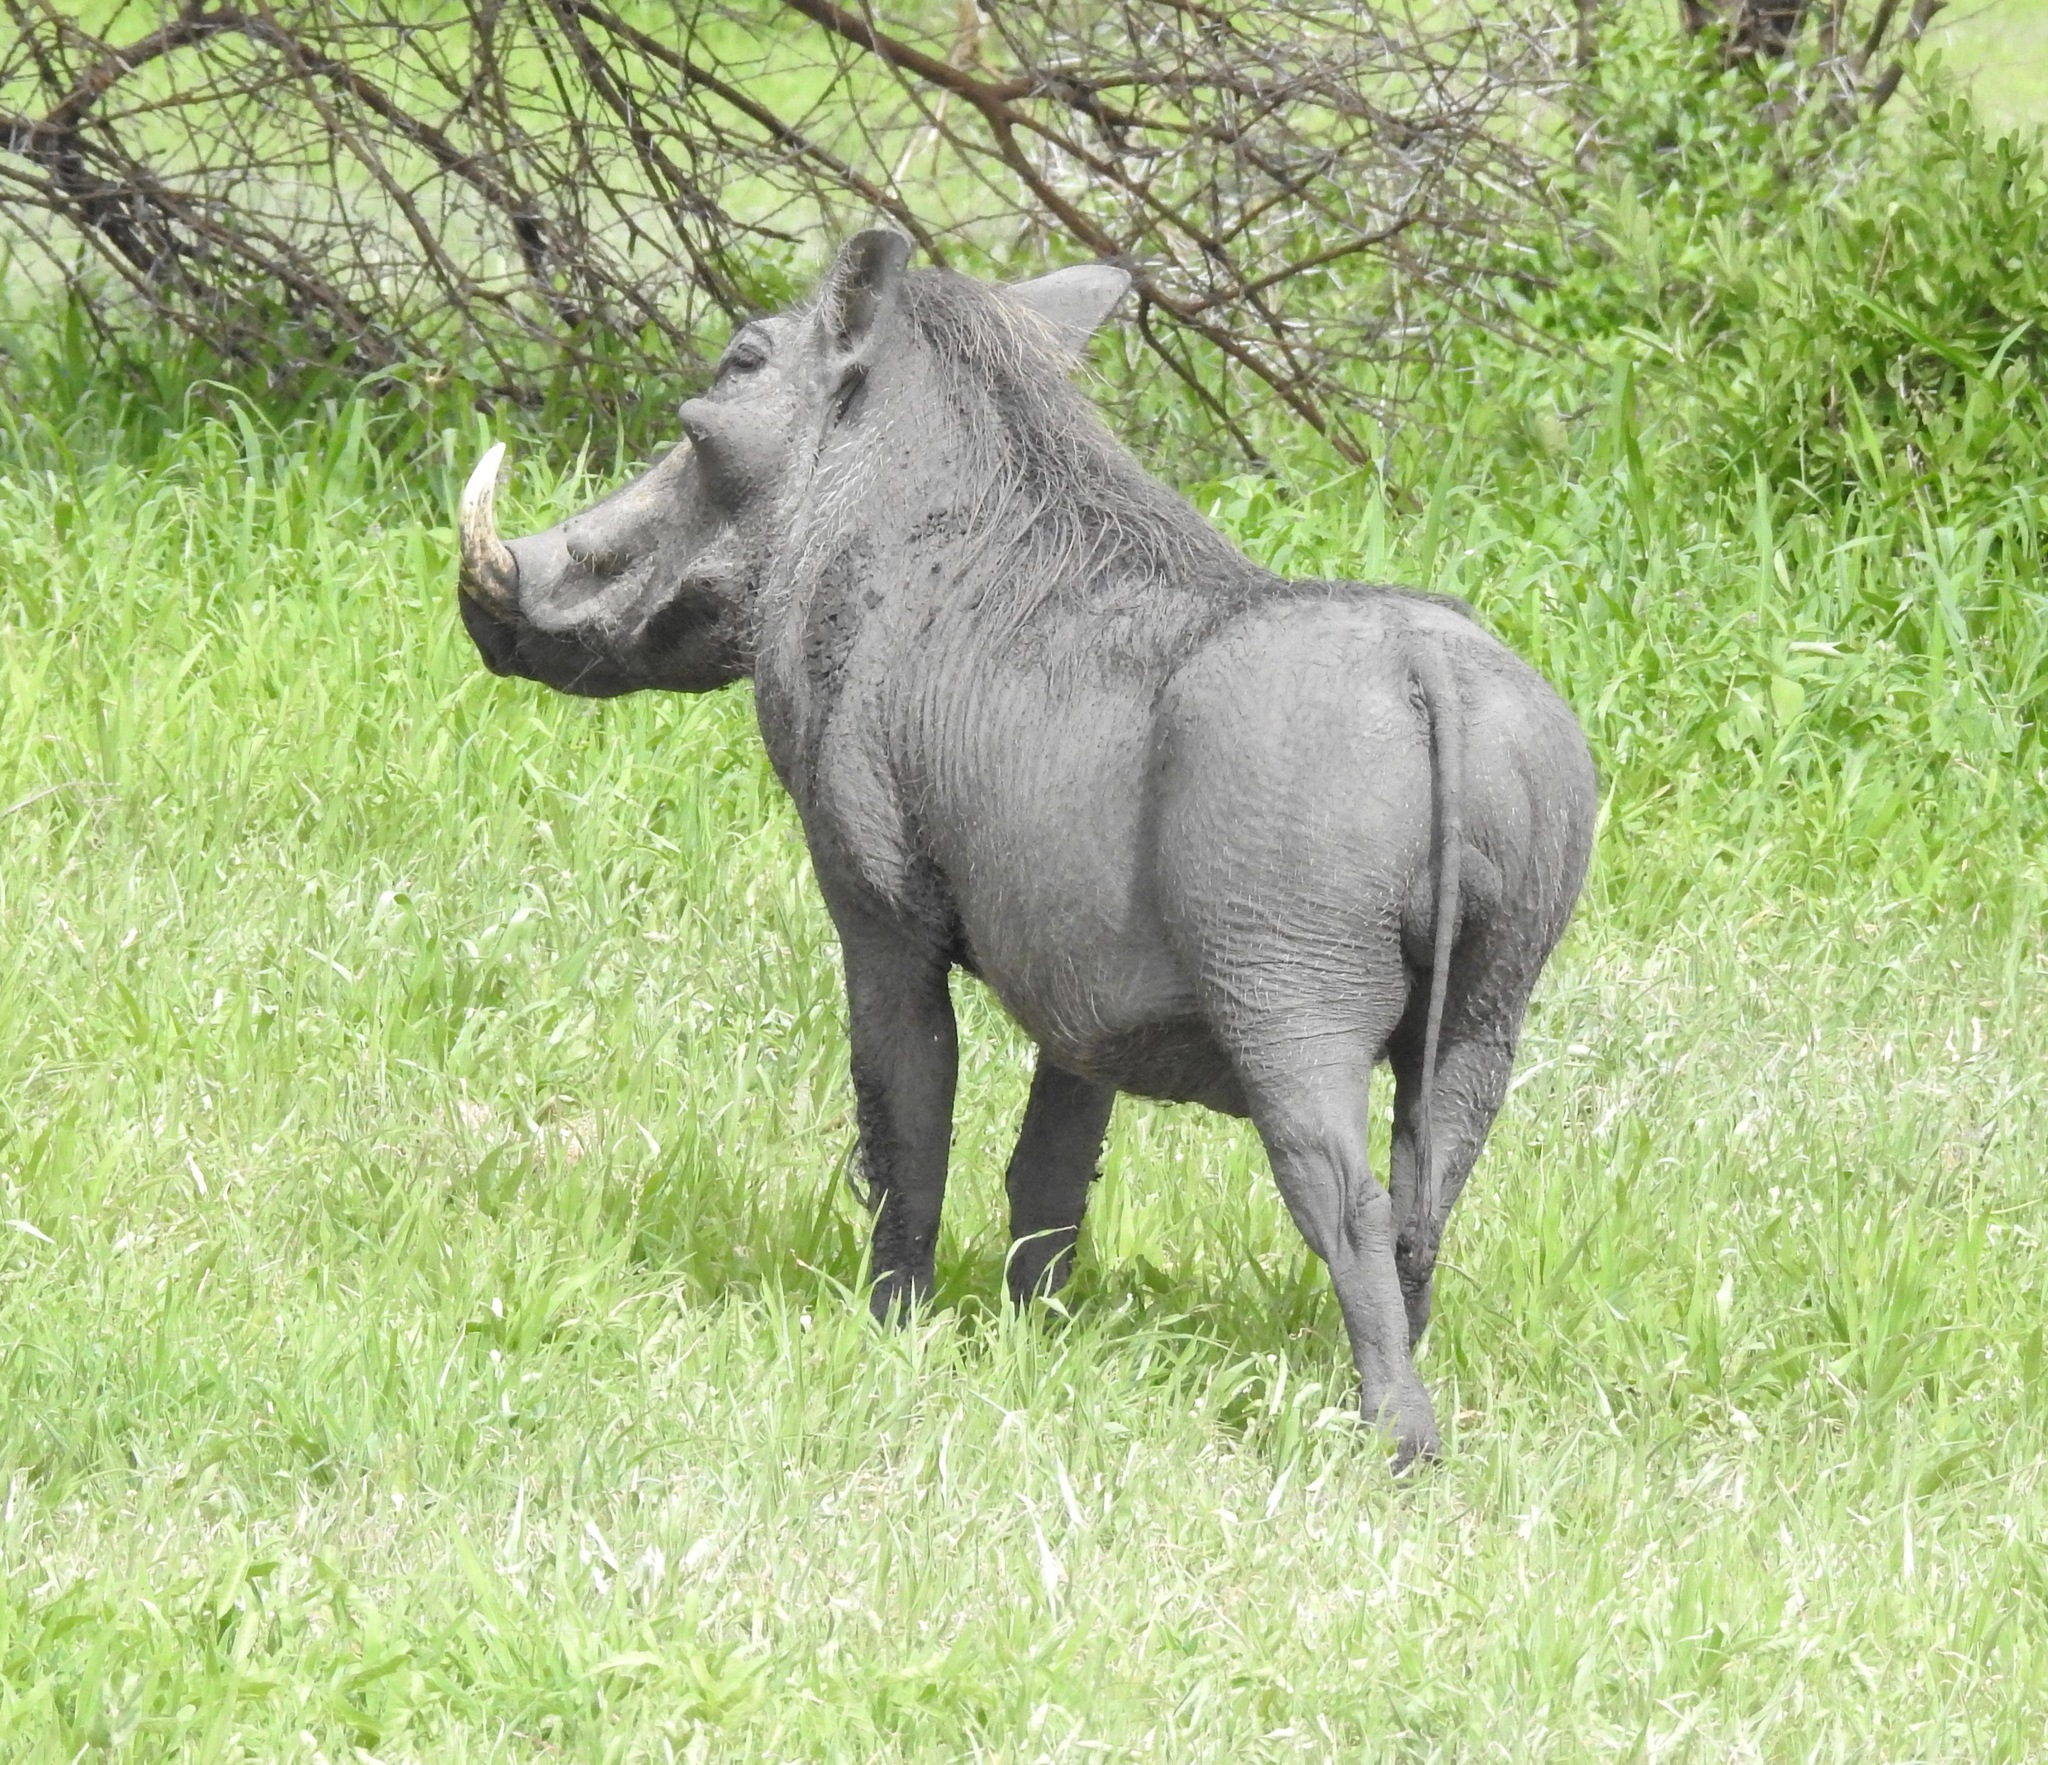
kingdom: Animalia
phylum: Chordata
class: Mammalia
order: Artiodactyla
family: Suidae
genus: Phacochoerus
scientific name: Phacochoerus africanus
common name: Common warthog
